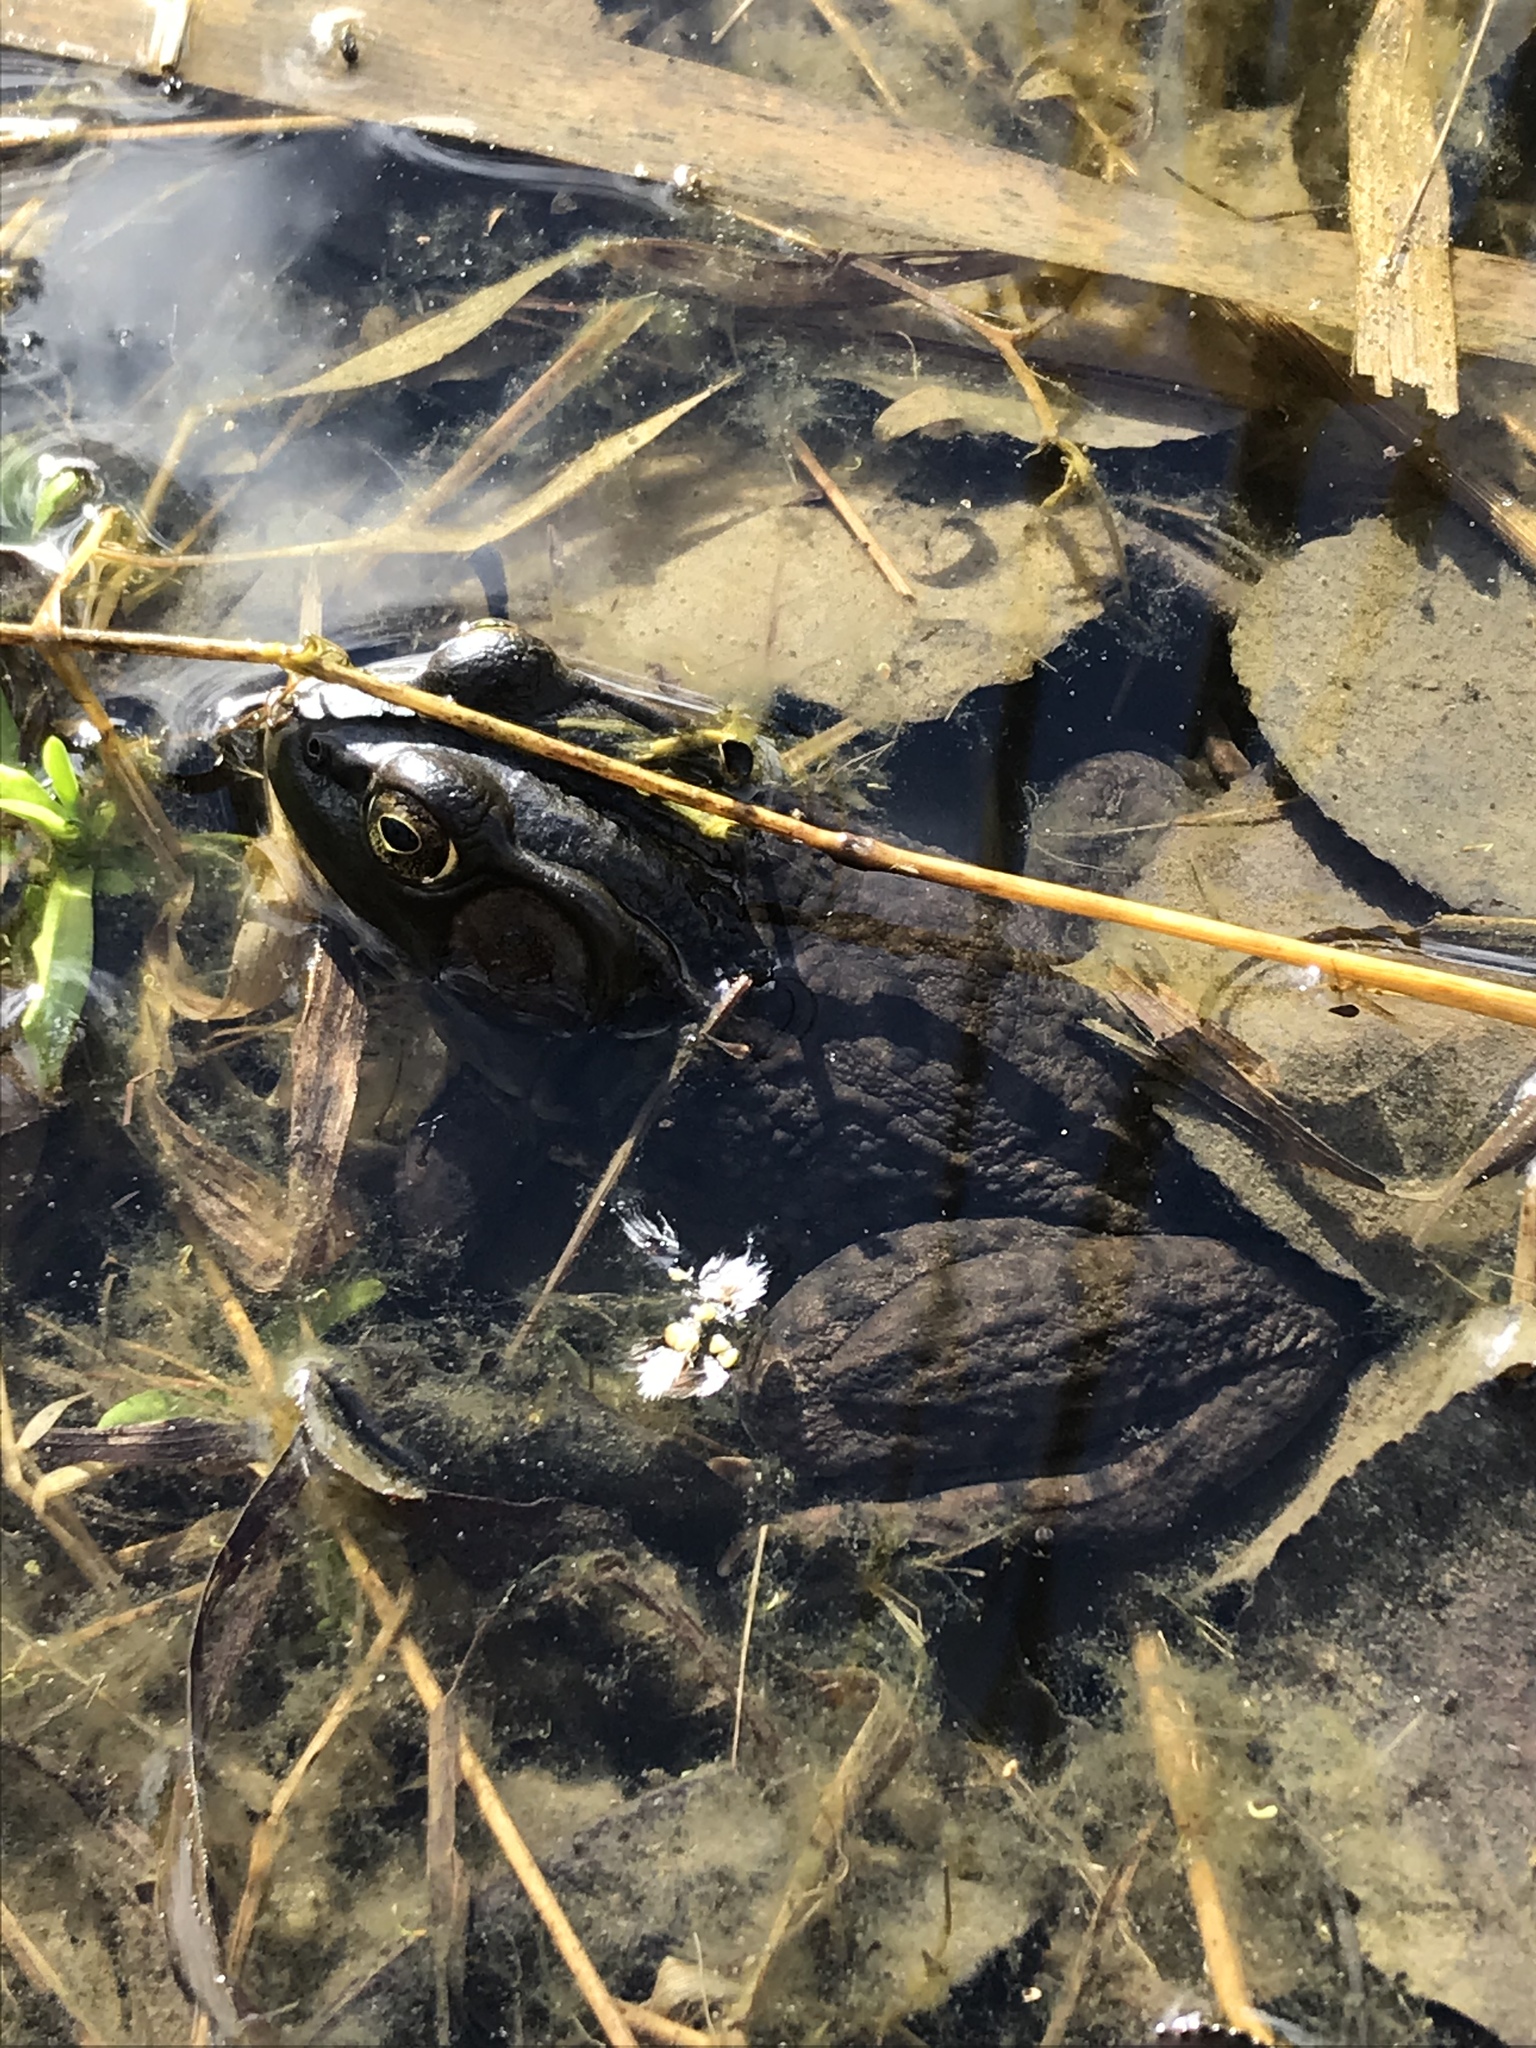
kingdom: Animalia
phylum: Chordata
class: Amphibia
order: Anura
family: Ranidae
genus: Lithobates
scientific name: Lithobates clamitans
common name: Green frog
